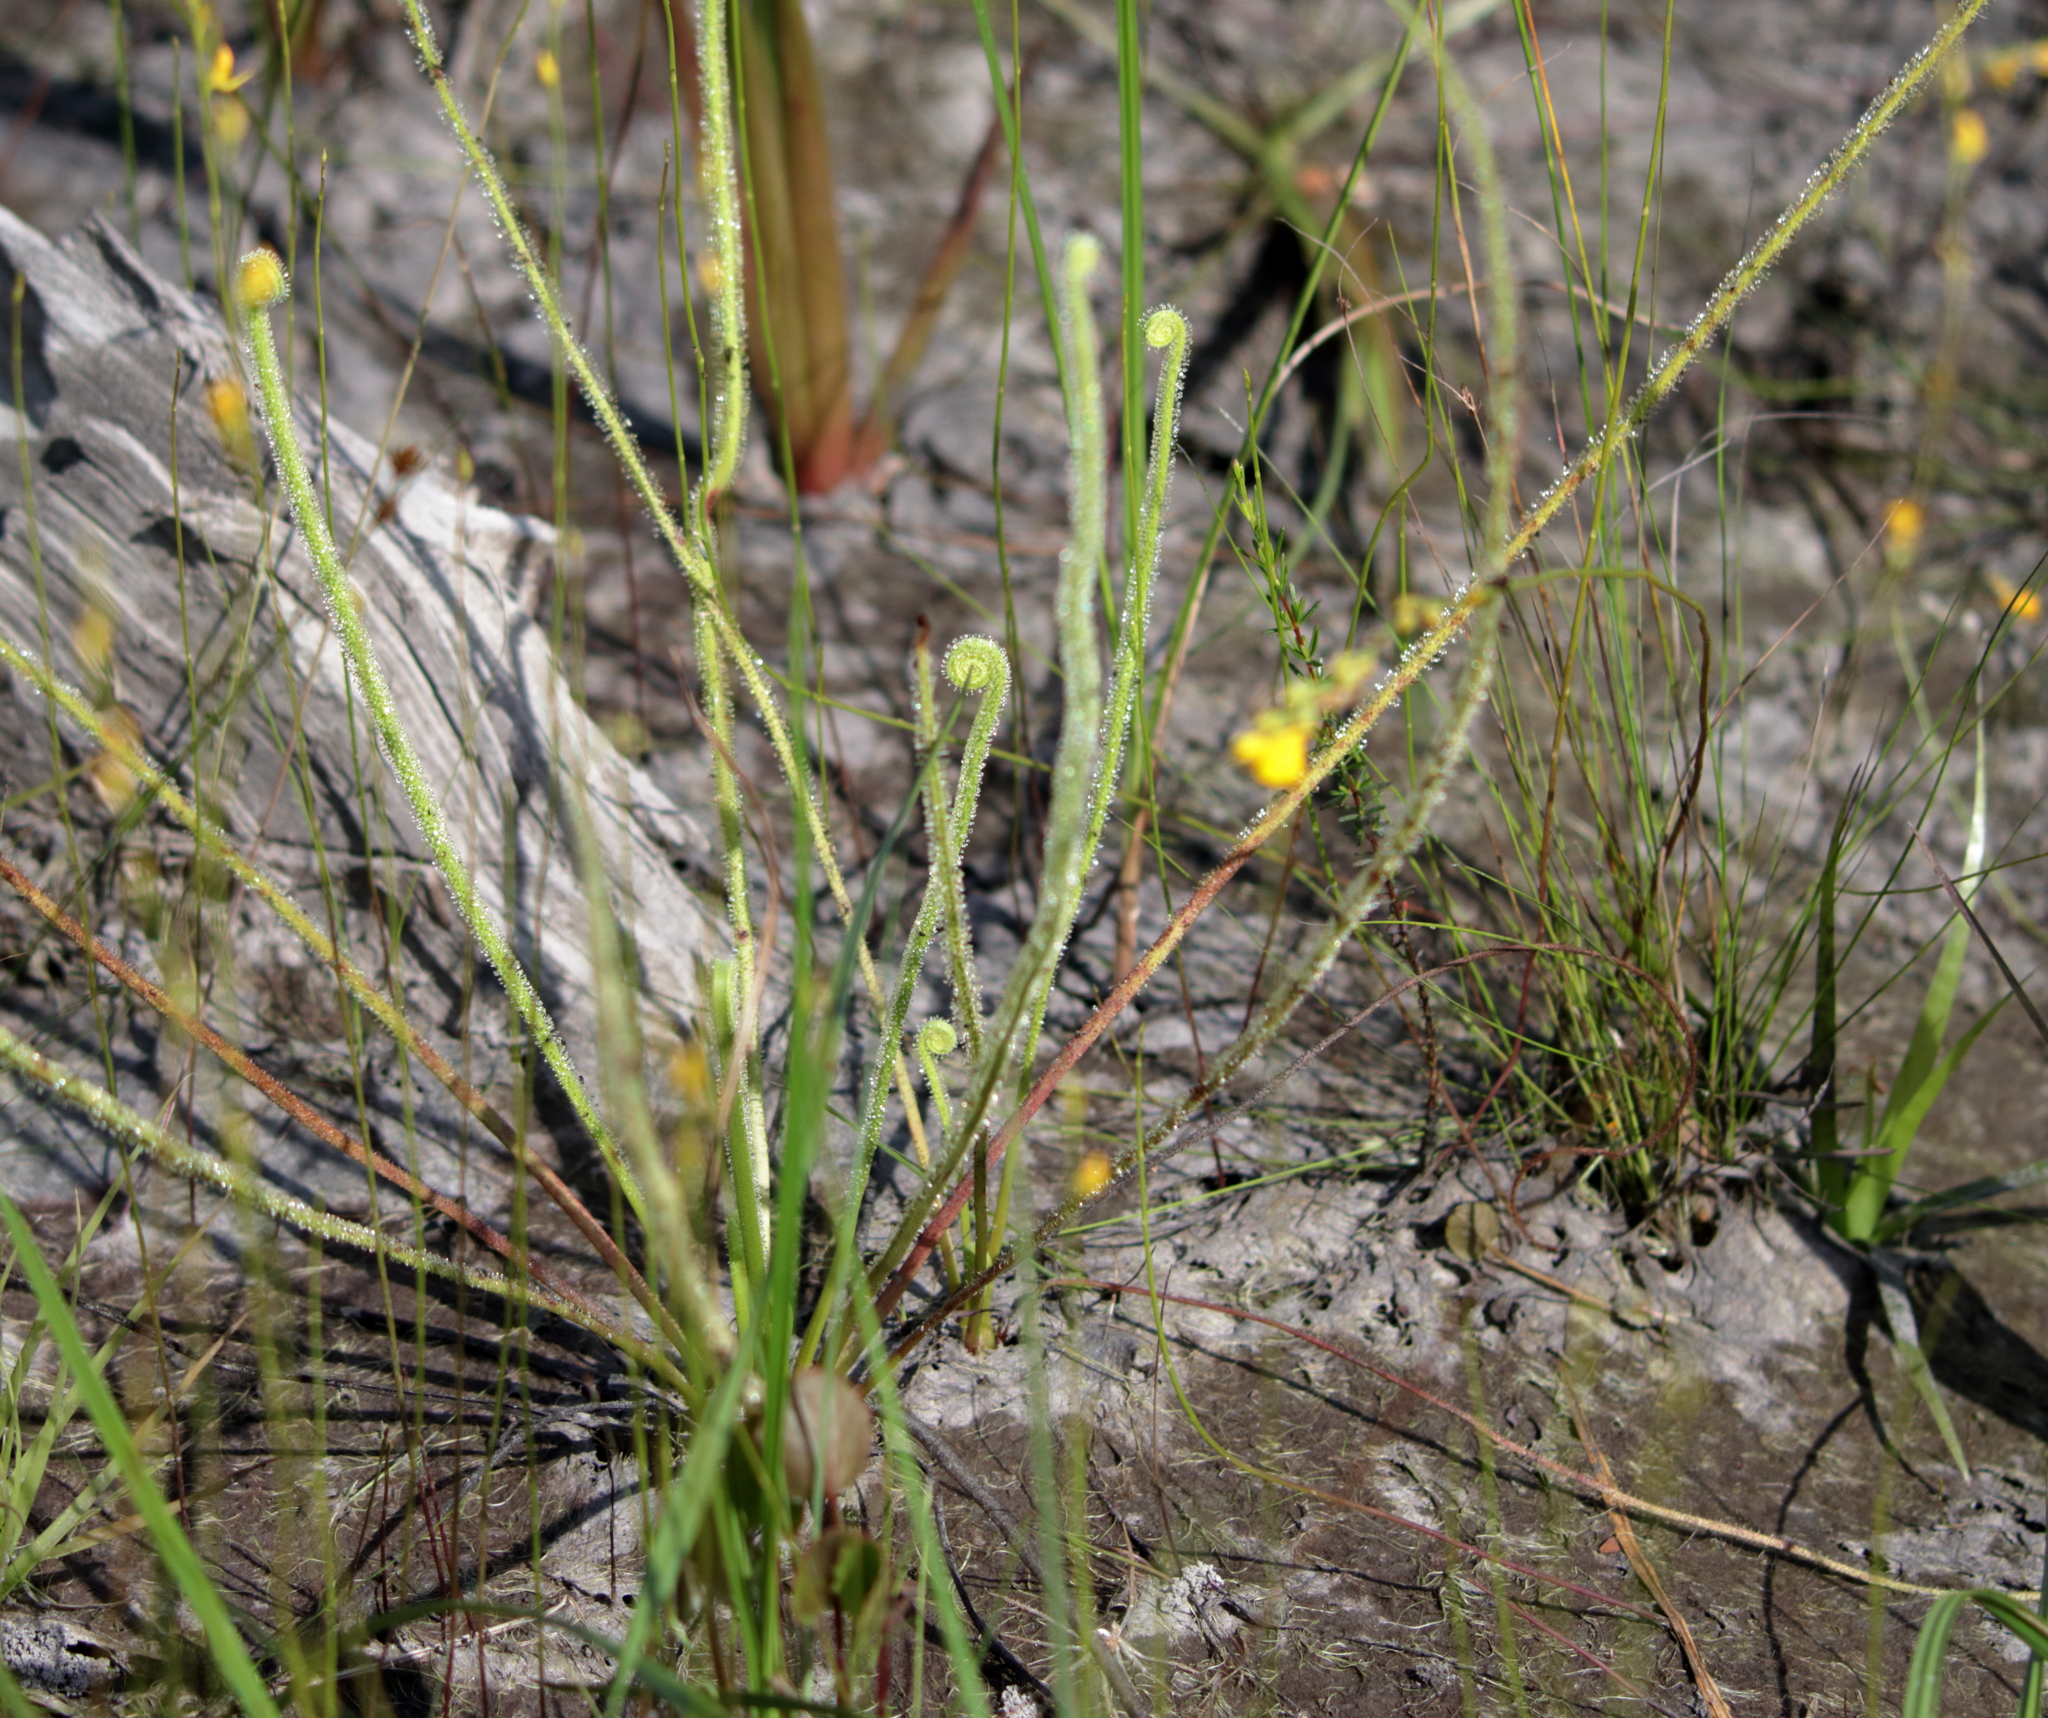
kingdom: Plantae
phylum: Tracheophyta
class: Magnoliopsida
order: Caryophyllales
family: Droseraceae
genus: Drosera
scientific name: Drosera filiformis
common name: Dew-thread
